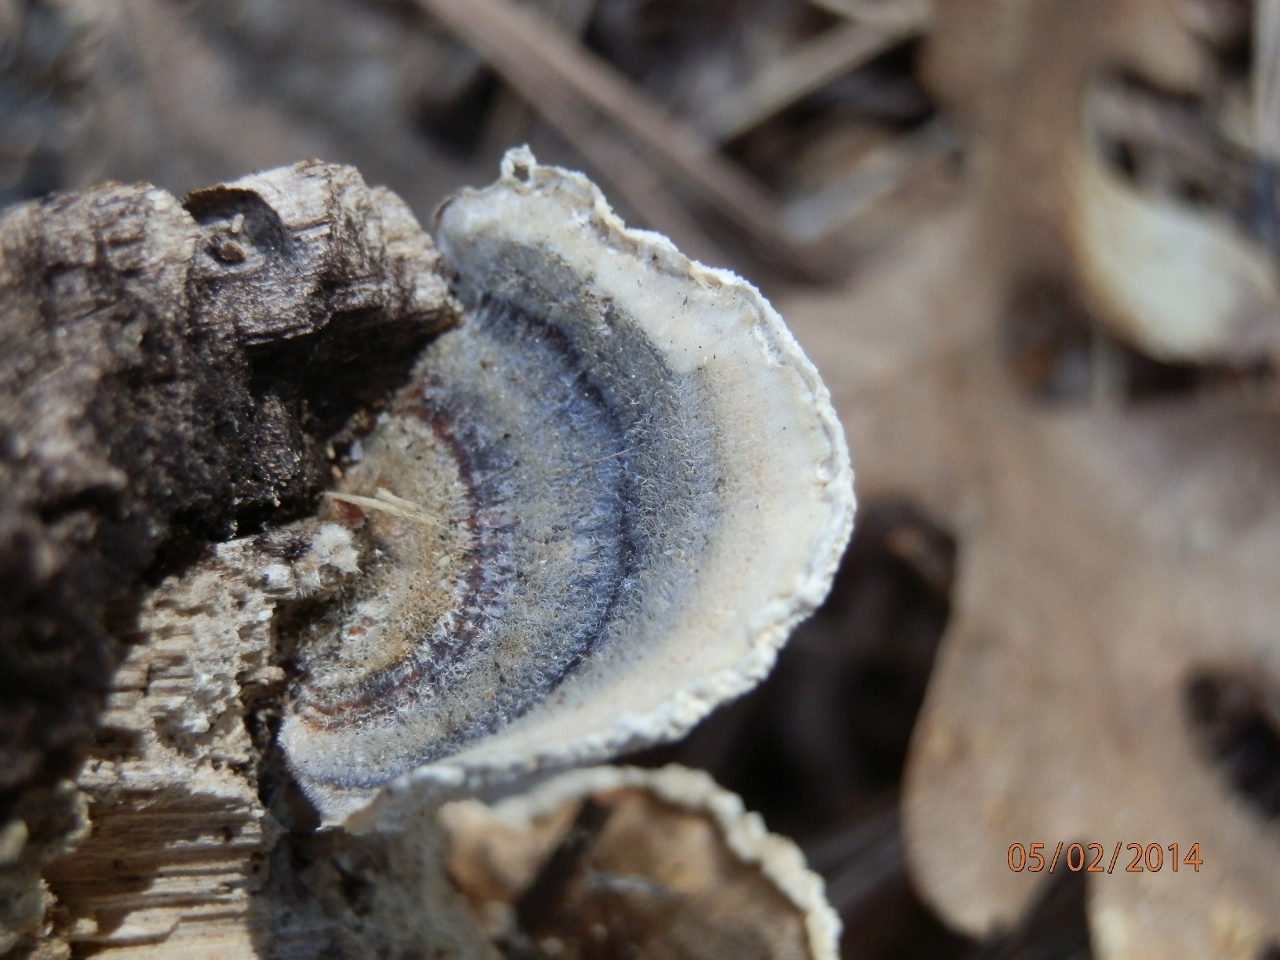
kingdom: Fungi
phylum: Basidiomycota
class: Agaricomycetes
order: Polyporales
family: Polyporaceae
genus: Trametes
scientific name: Trametes versicolor
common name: Turkeytail
